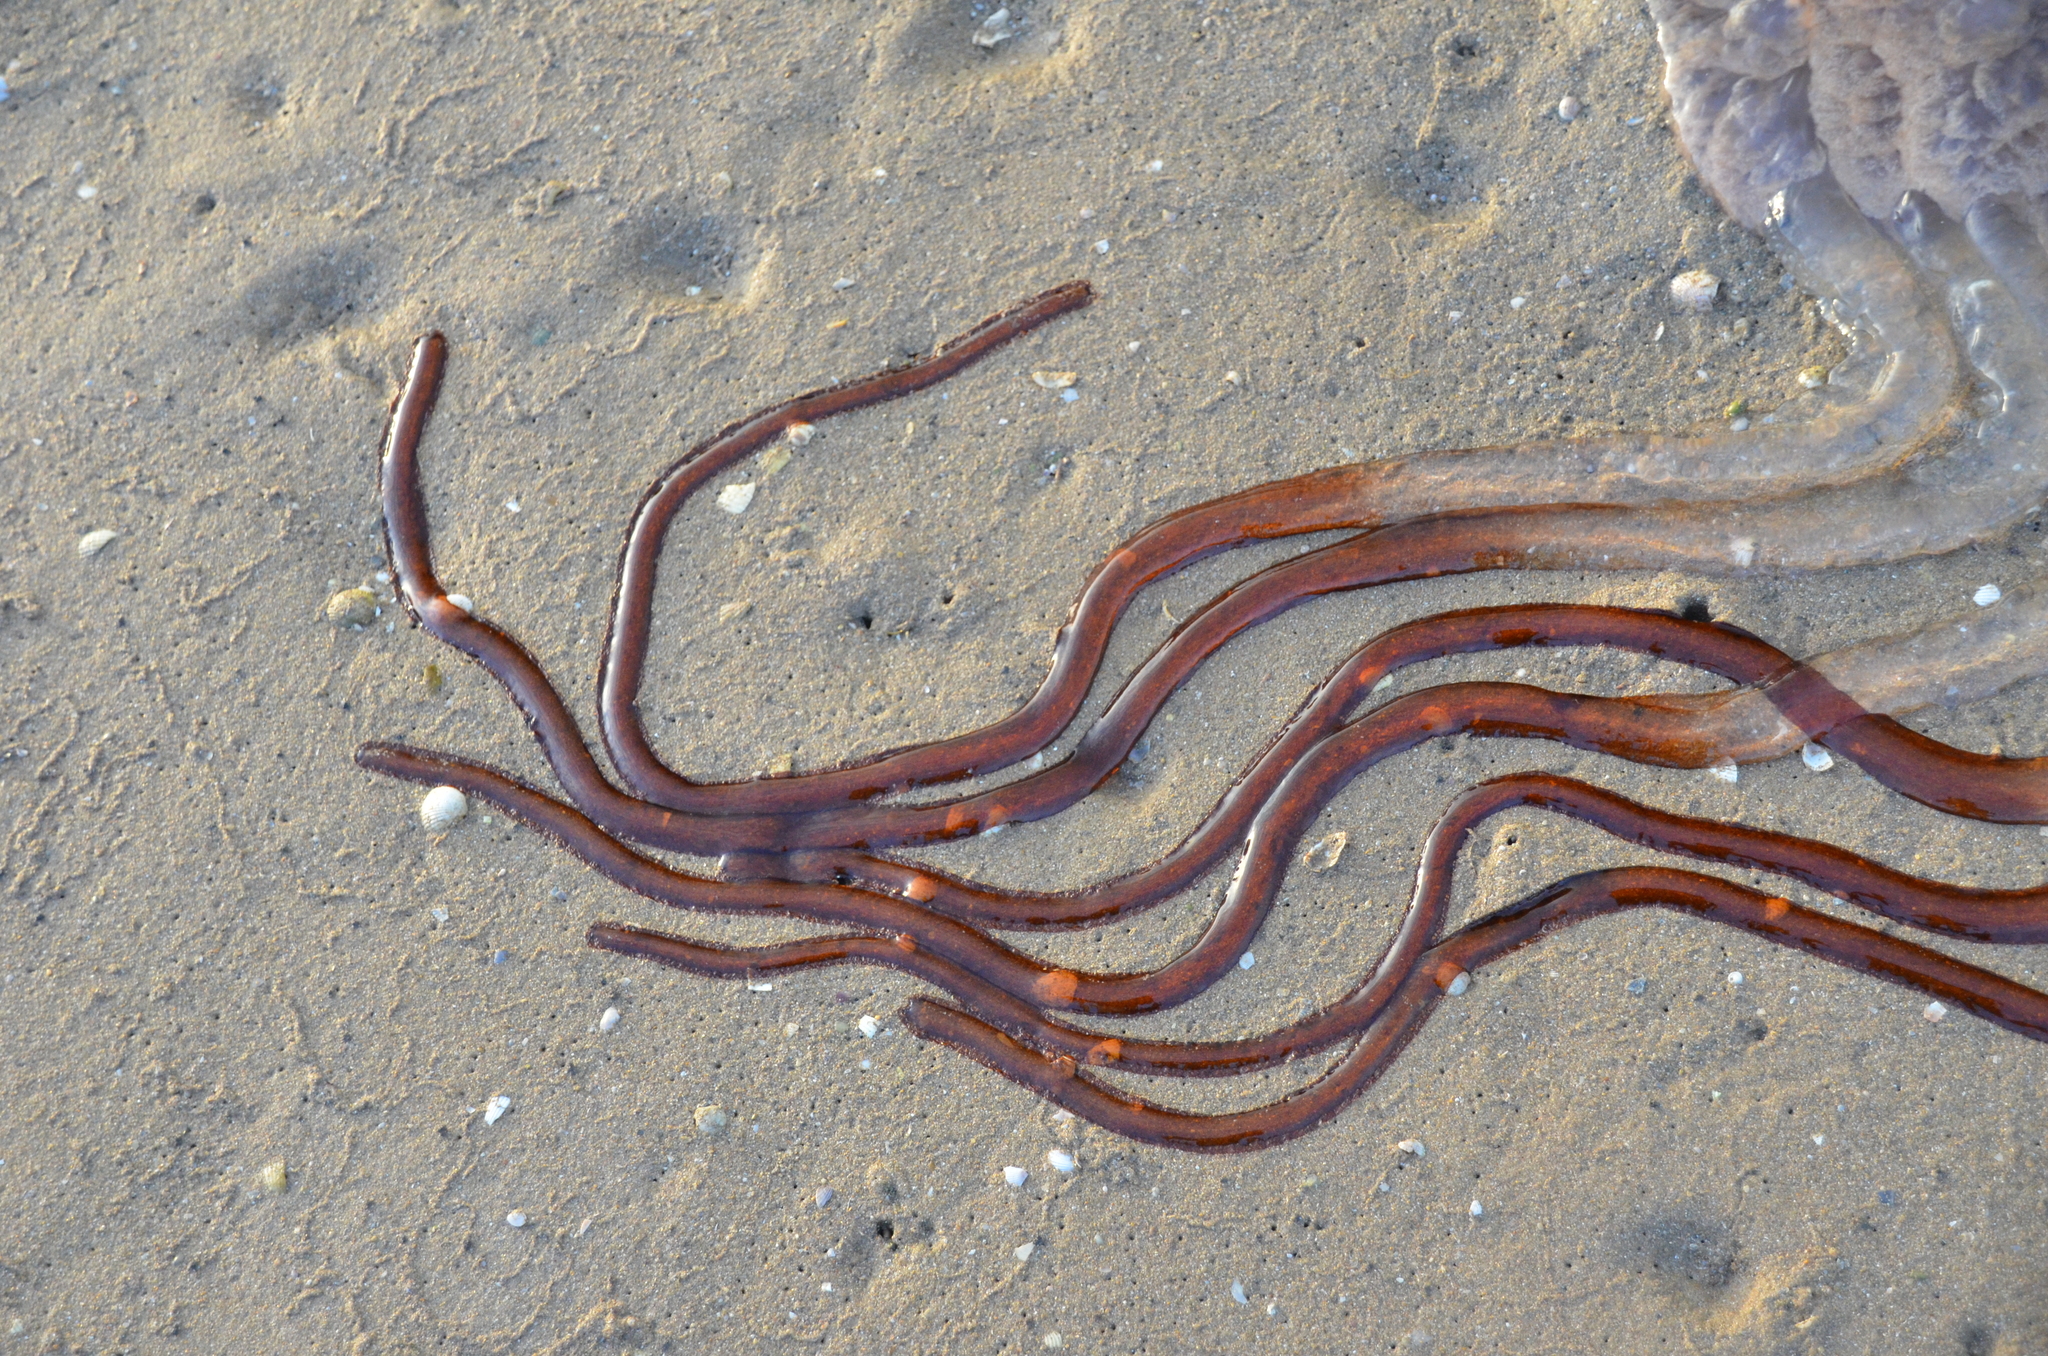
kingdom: Animalia
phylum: Cnidaria
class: Scyphozoa
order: Rhizostomeae
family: Rhizostomatidae
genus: Rhizostoma
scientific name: Rhizostoma luteum
